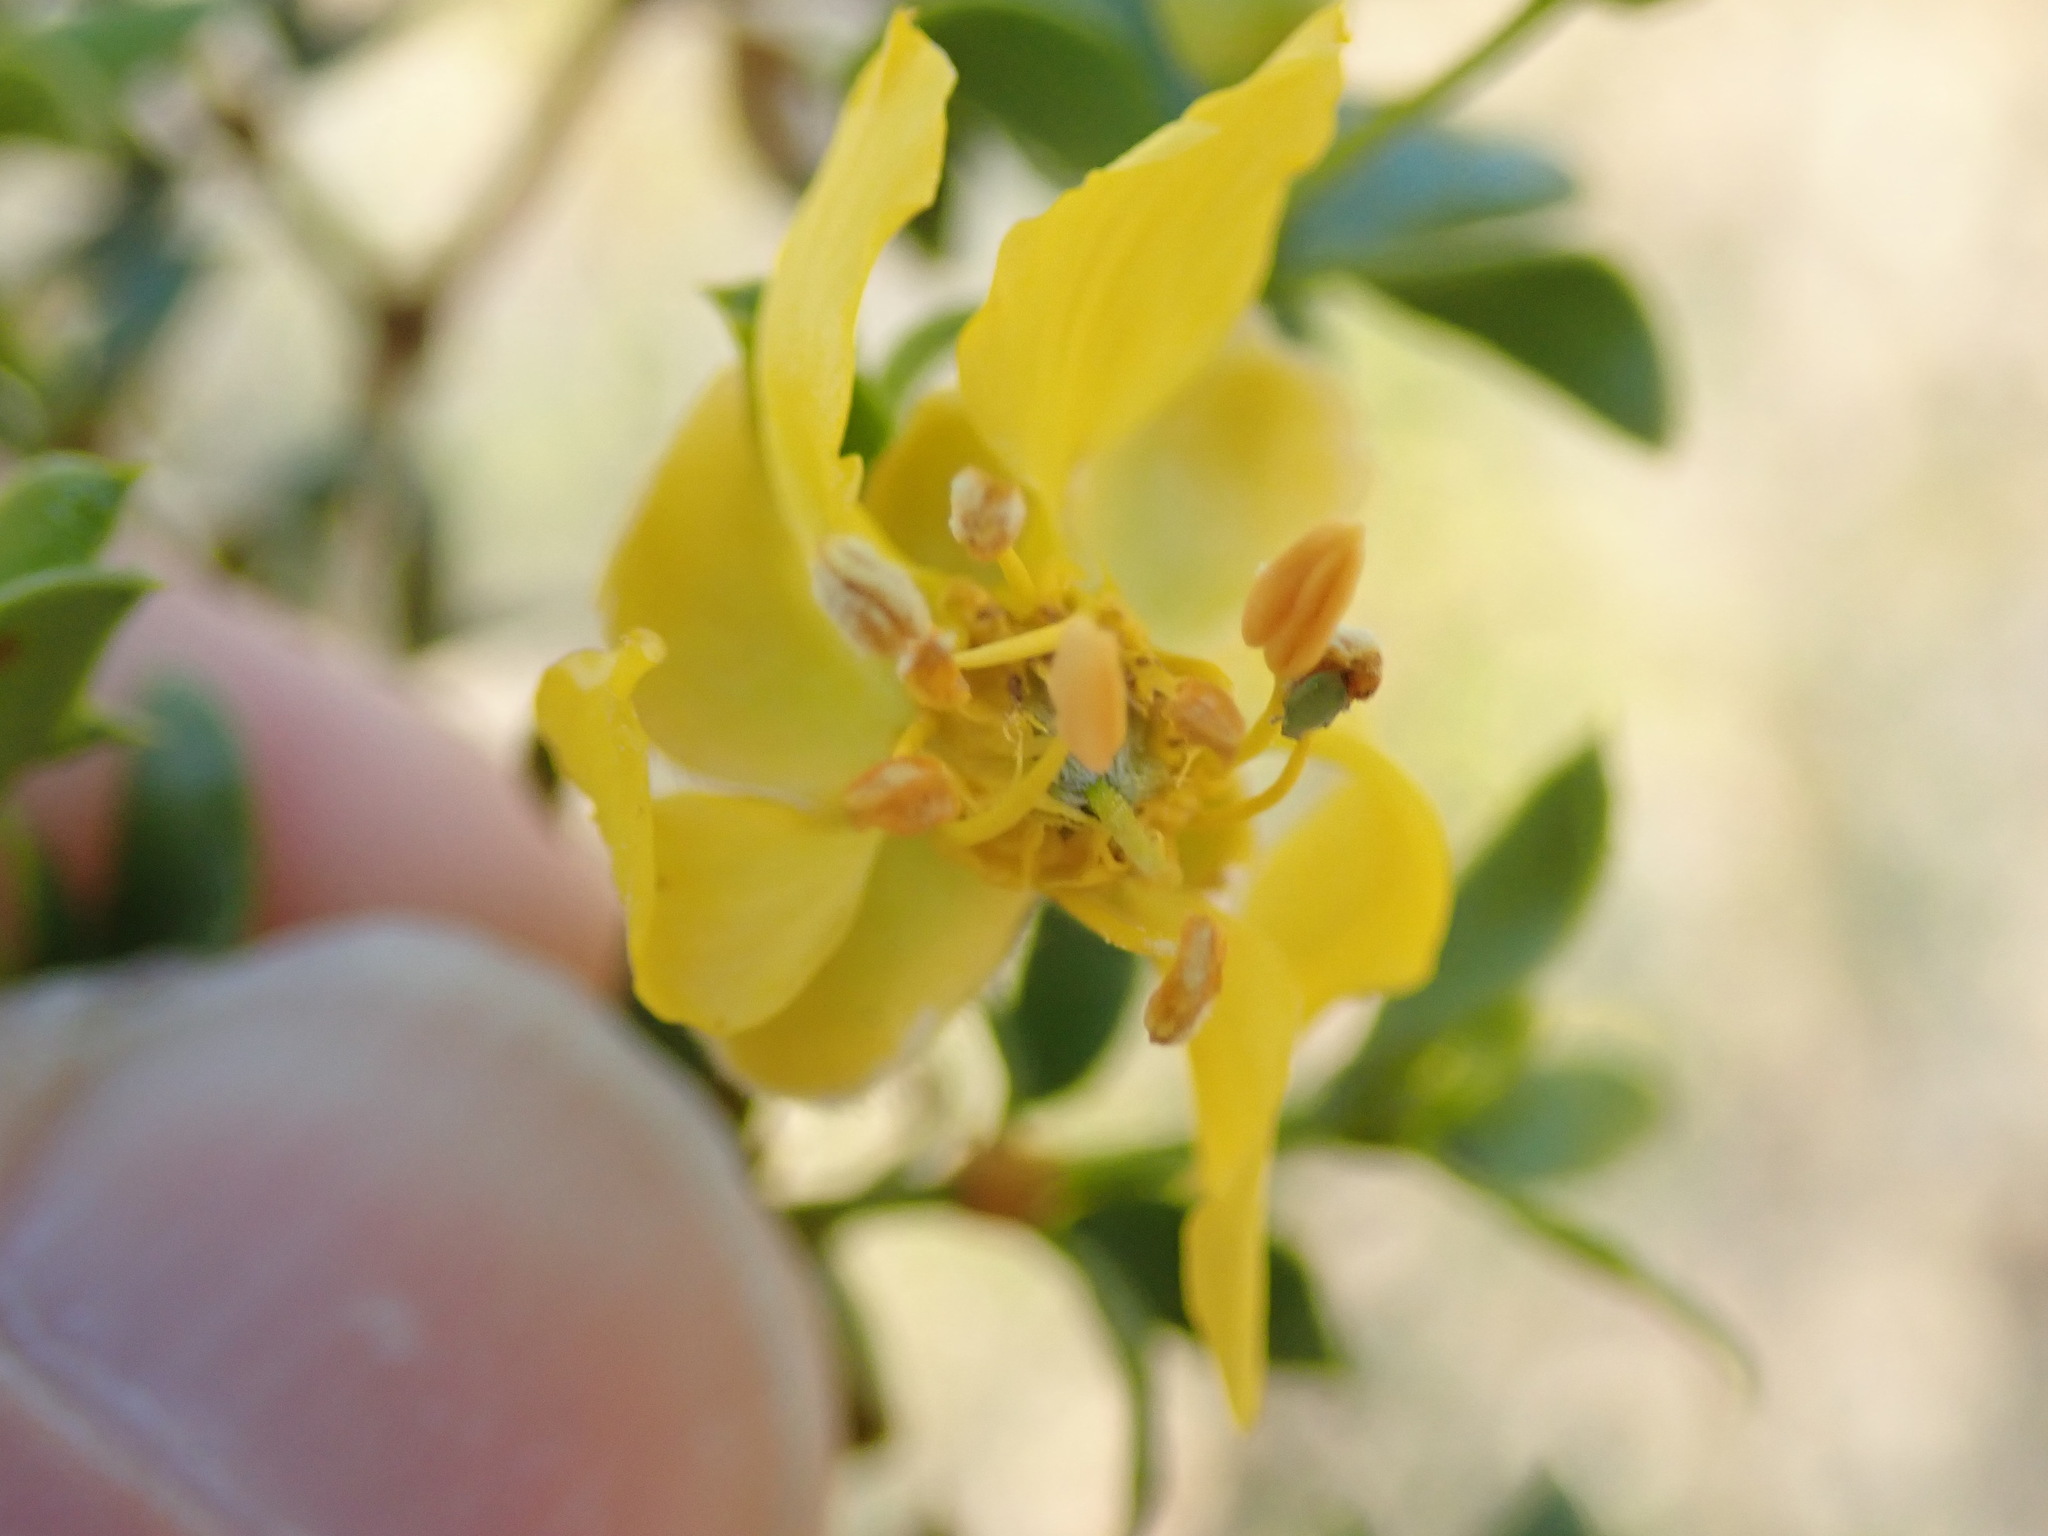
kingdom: Plantae
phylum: Tracheophyta
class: Magnoliopsida
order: Zygophyllales
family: Zygophyllaceae
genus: Larrea
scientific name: Larrea tridentata
